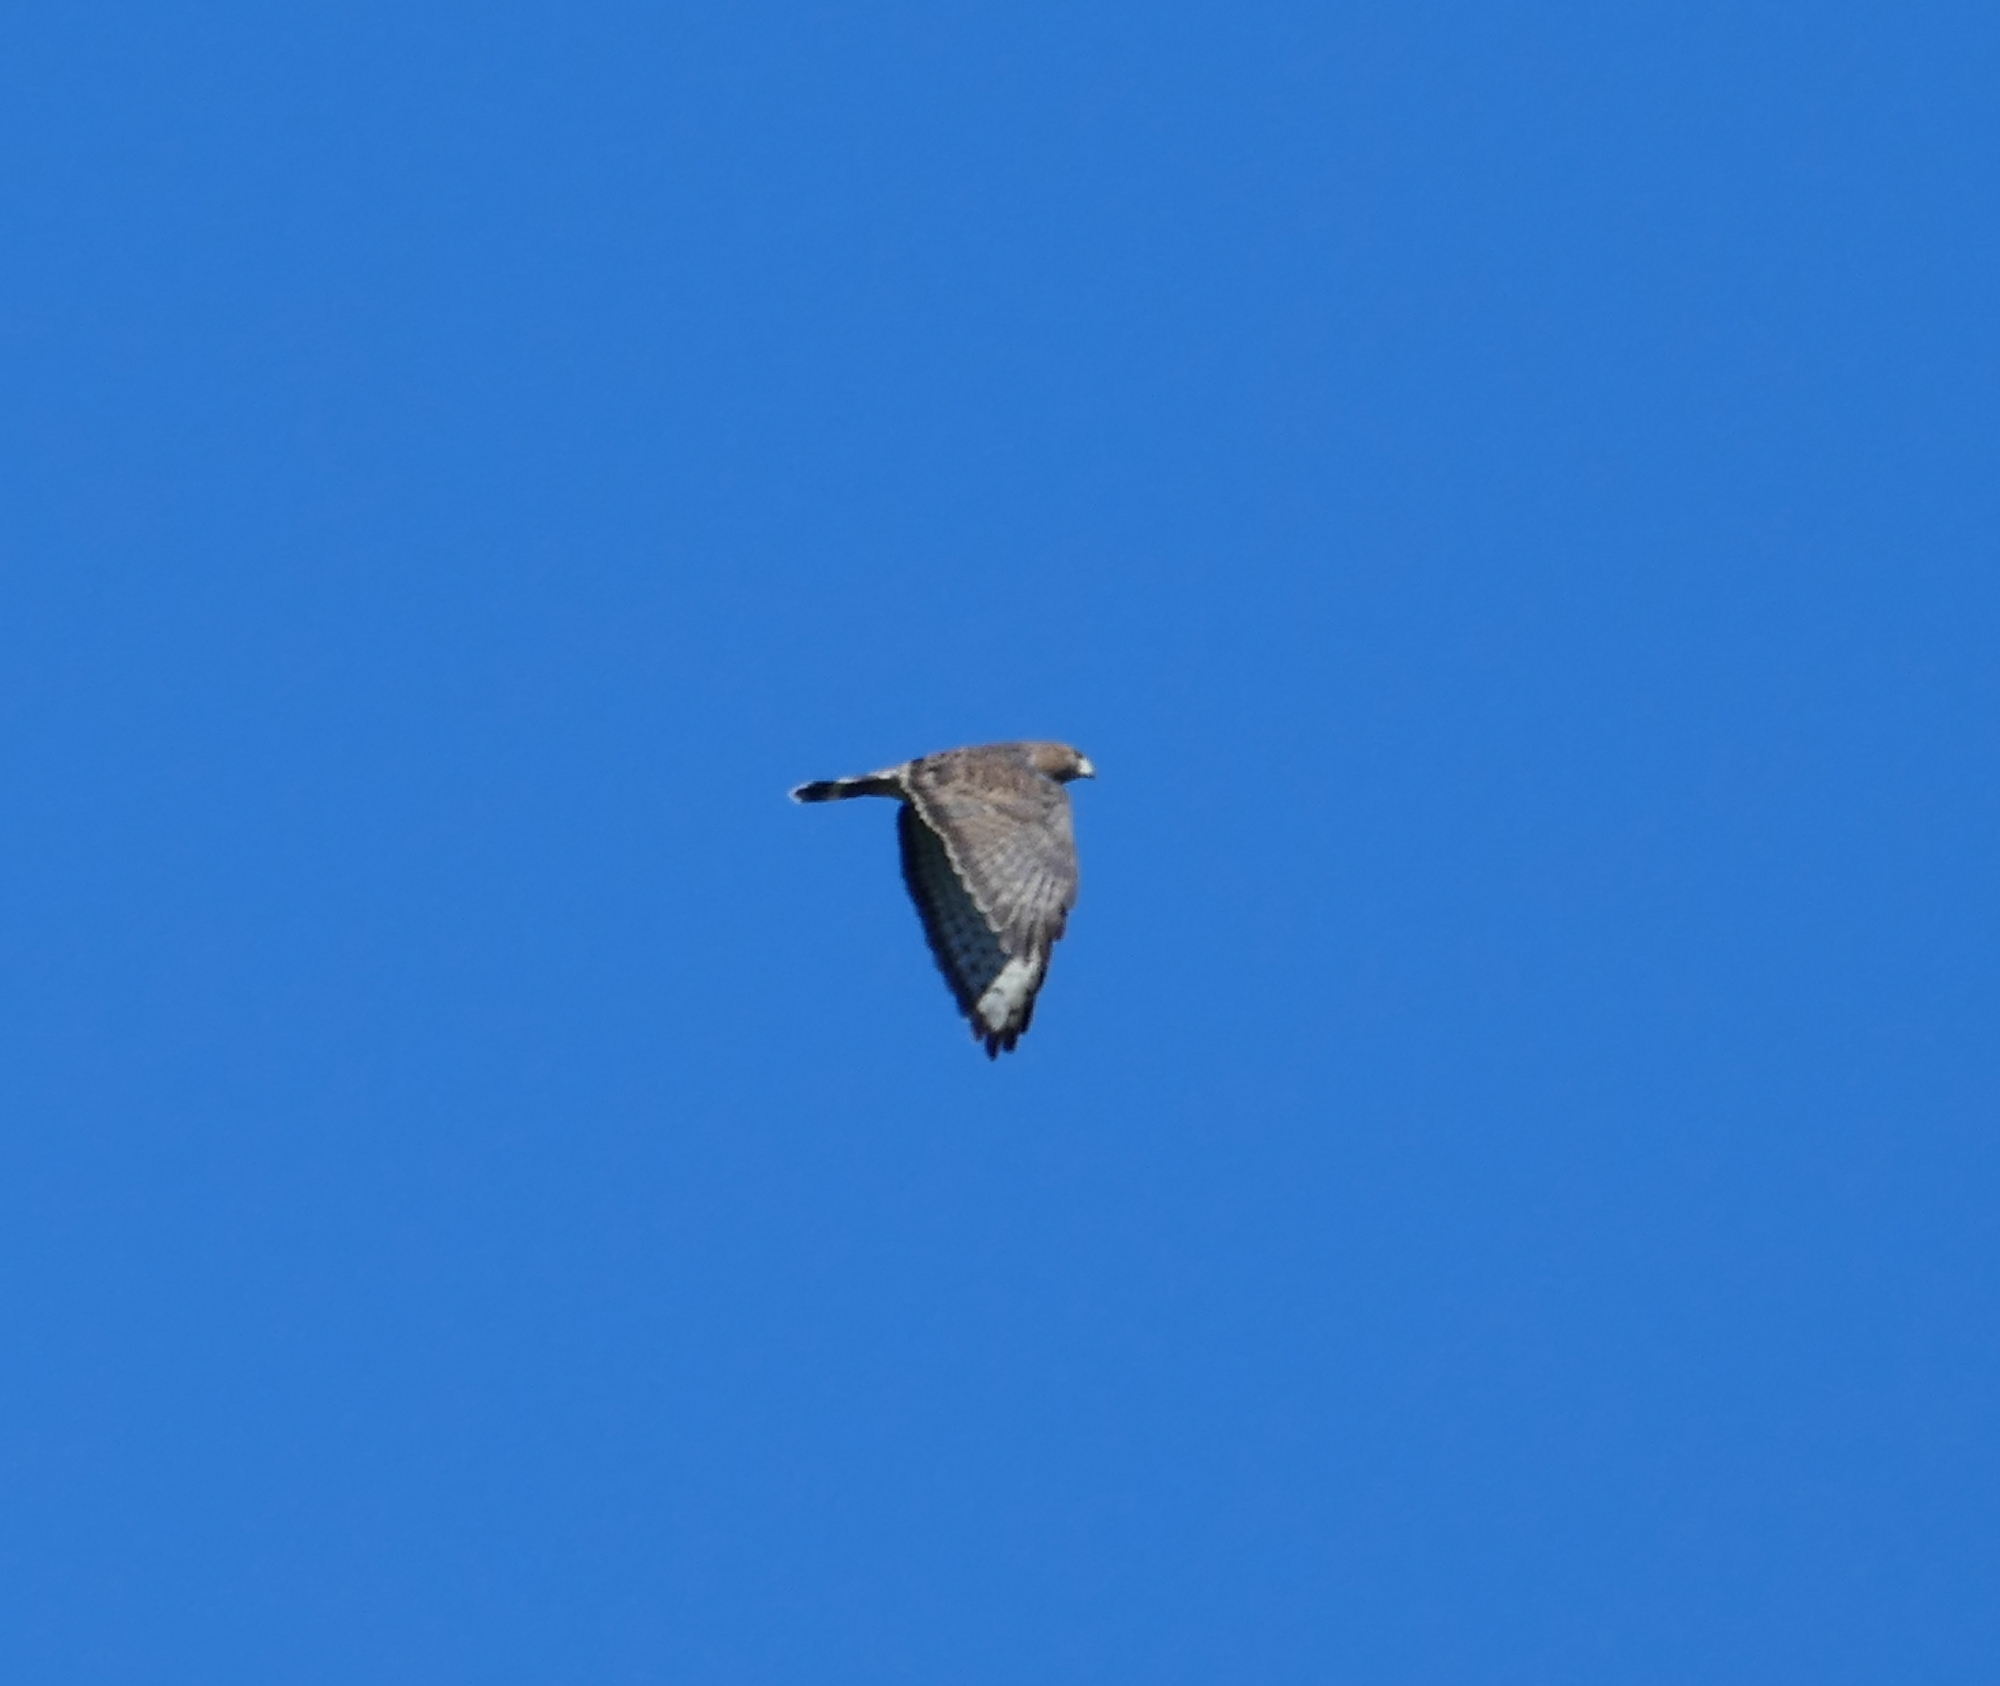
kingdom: Animalia
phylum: Chordata
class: Aves
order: Accipitriformes
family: Accipitridae
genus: Buteo
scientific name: Buteo platypterus
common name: Broad-winged hawk
